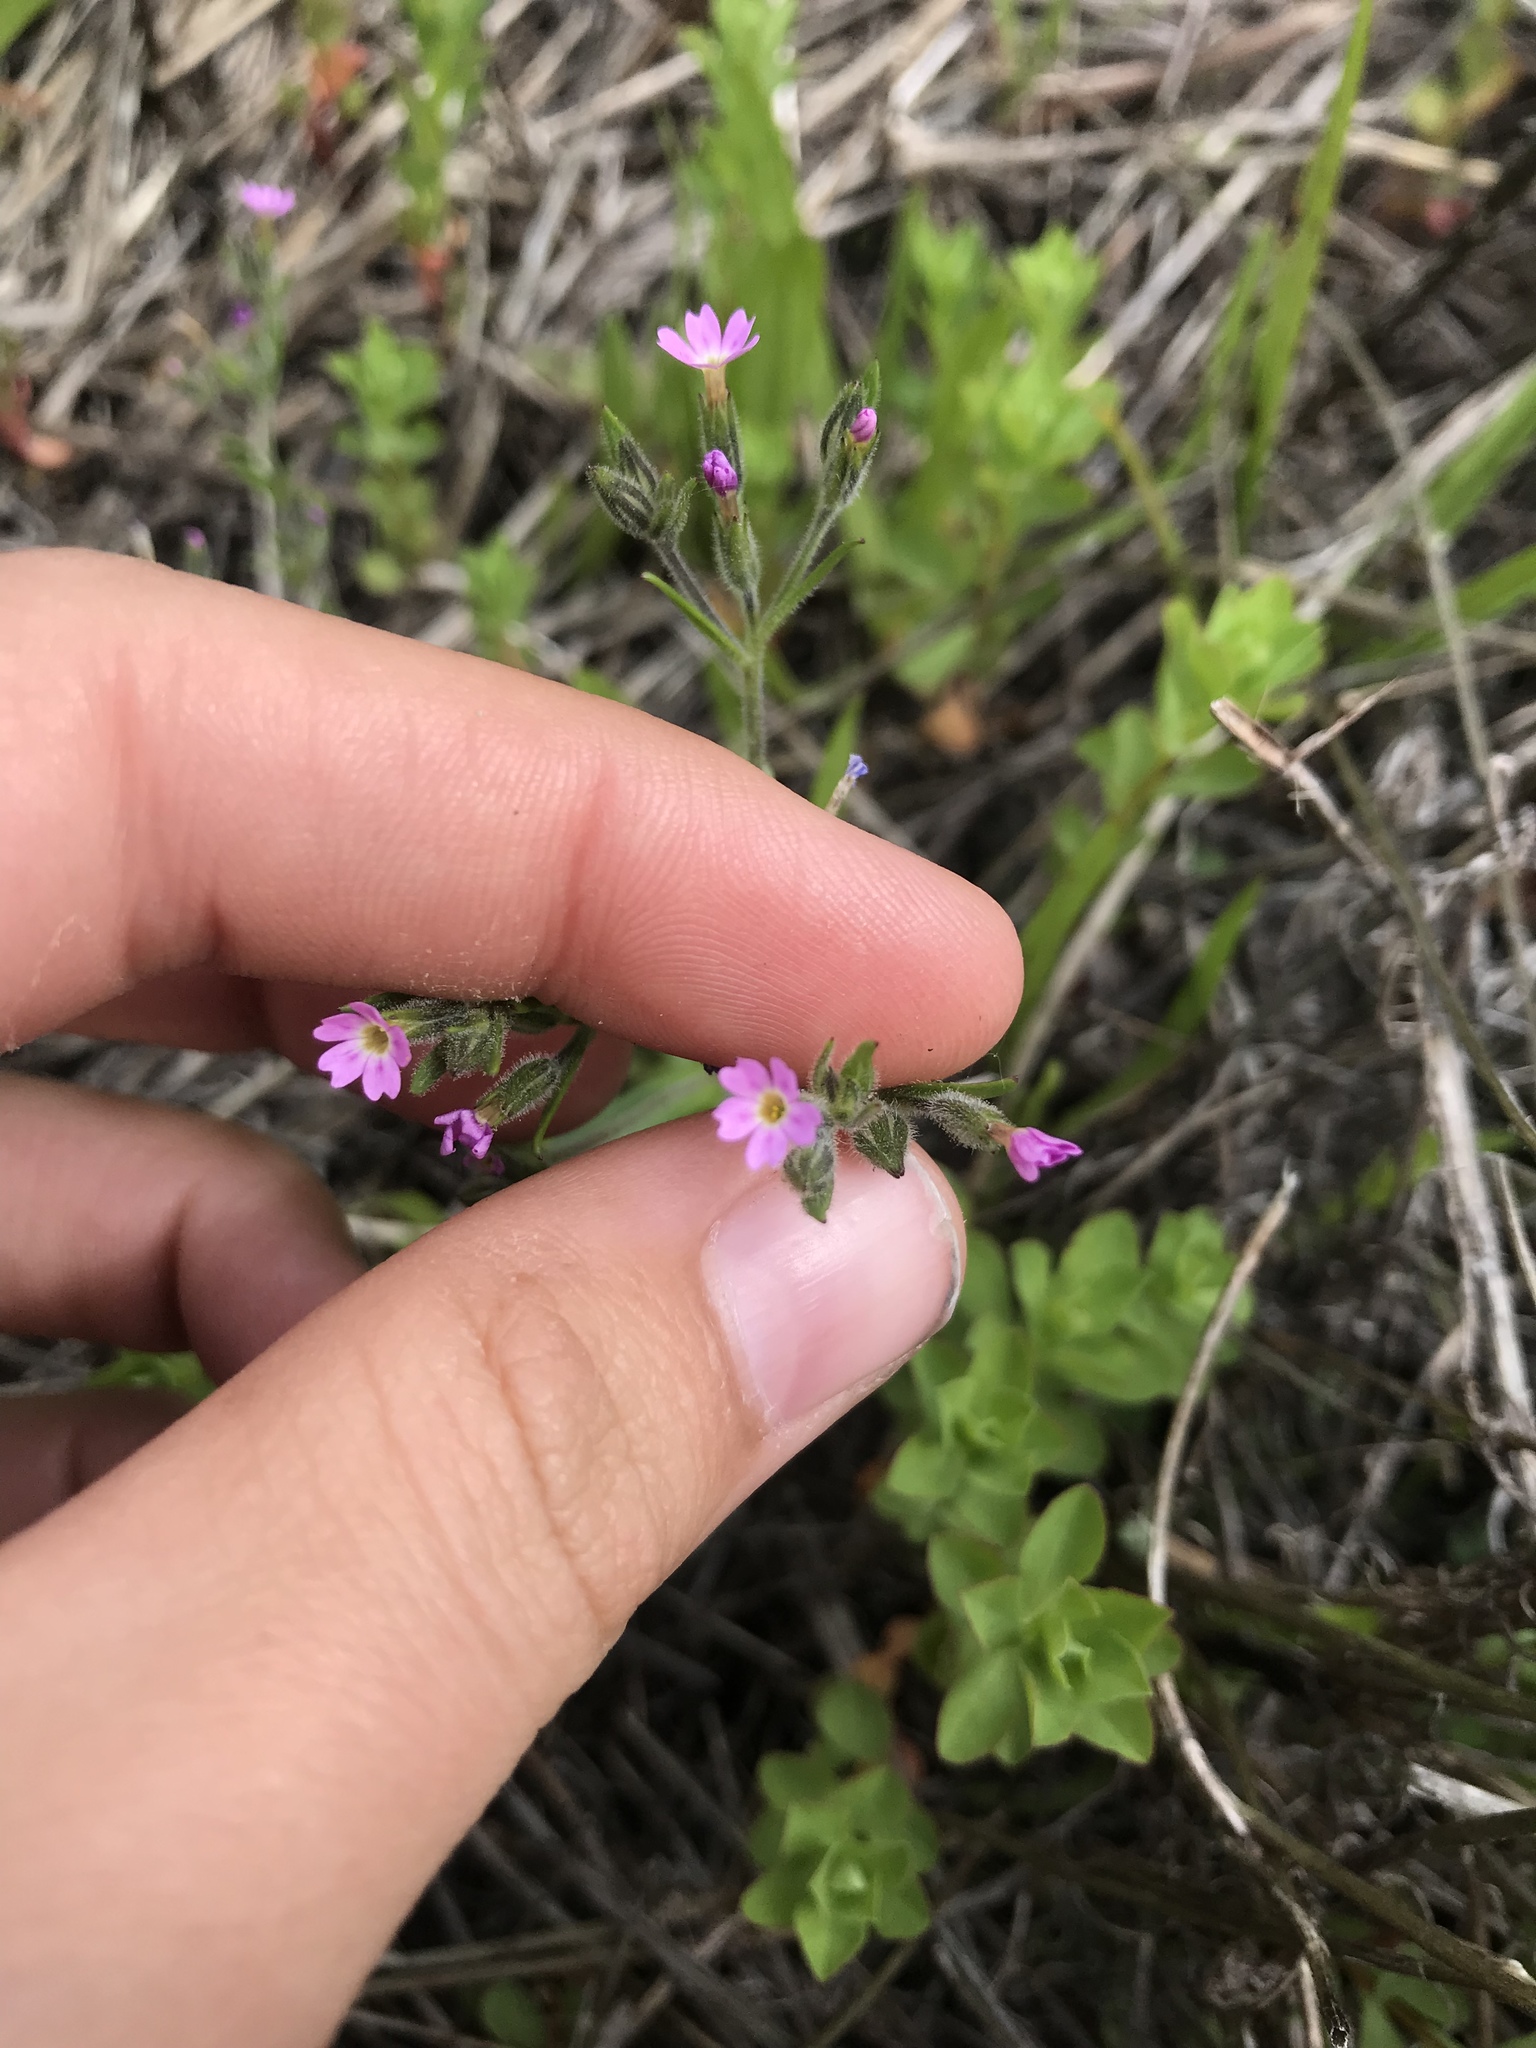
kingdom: Plantae
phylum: Tracheophyta
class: Magnoliopsida
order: Ericales
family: Polemoniaceae
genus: Phlox
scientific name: Phlox gracilis
